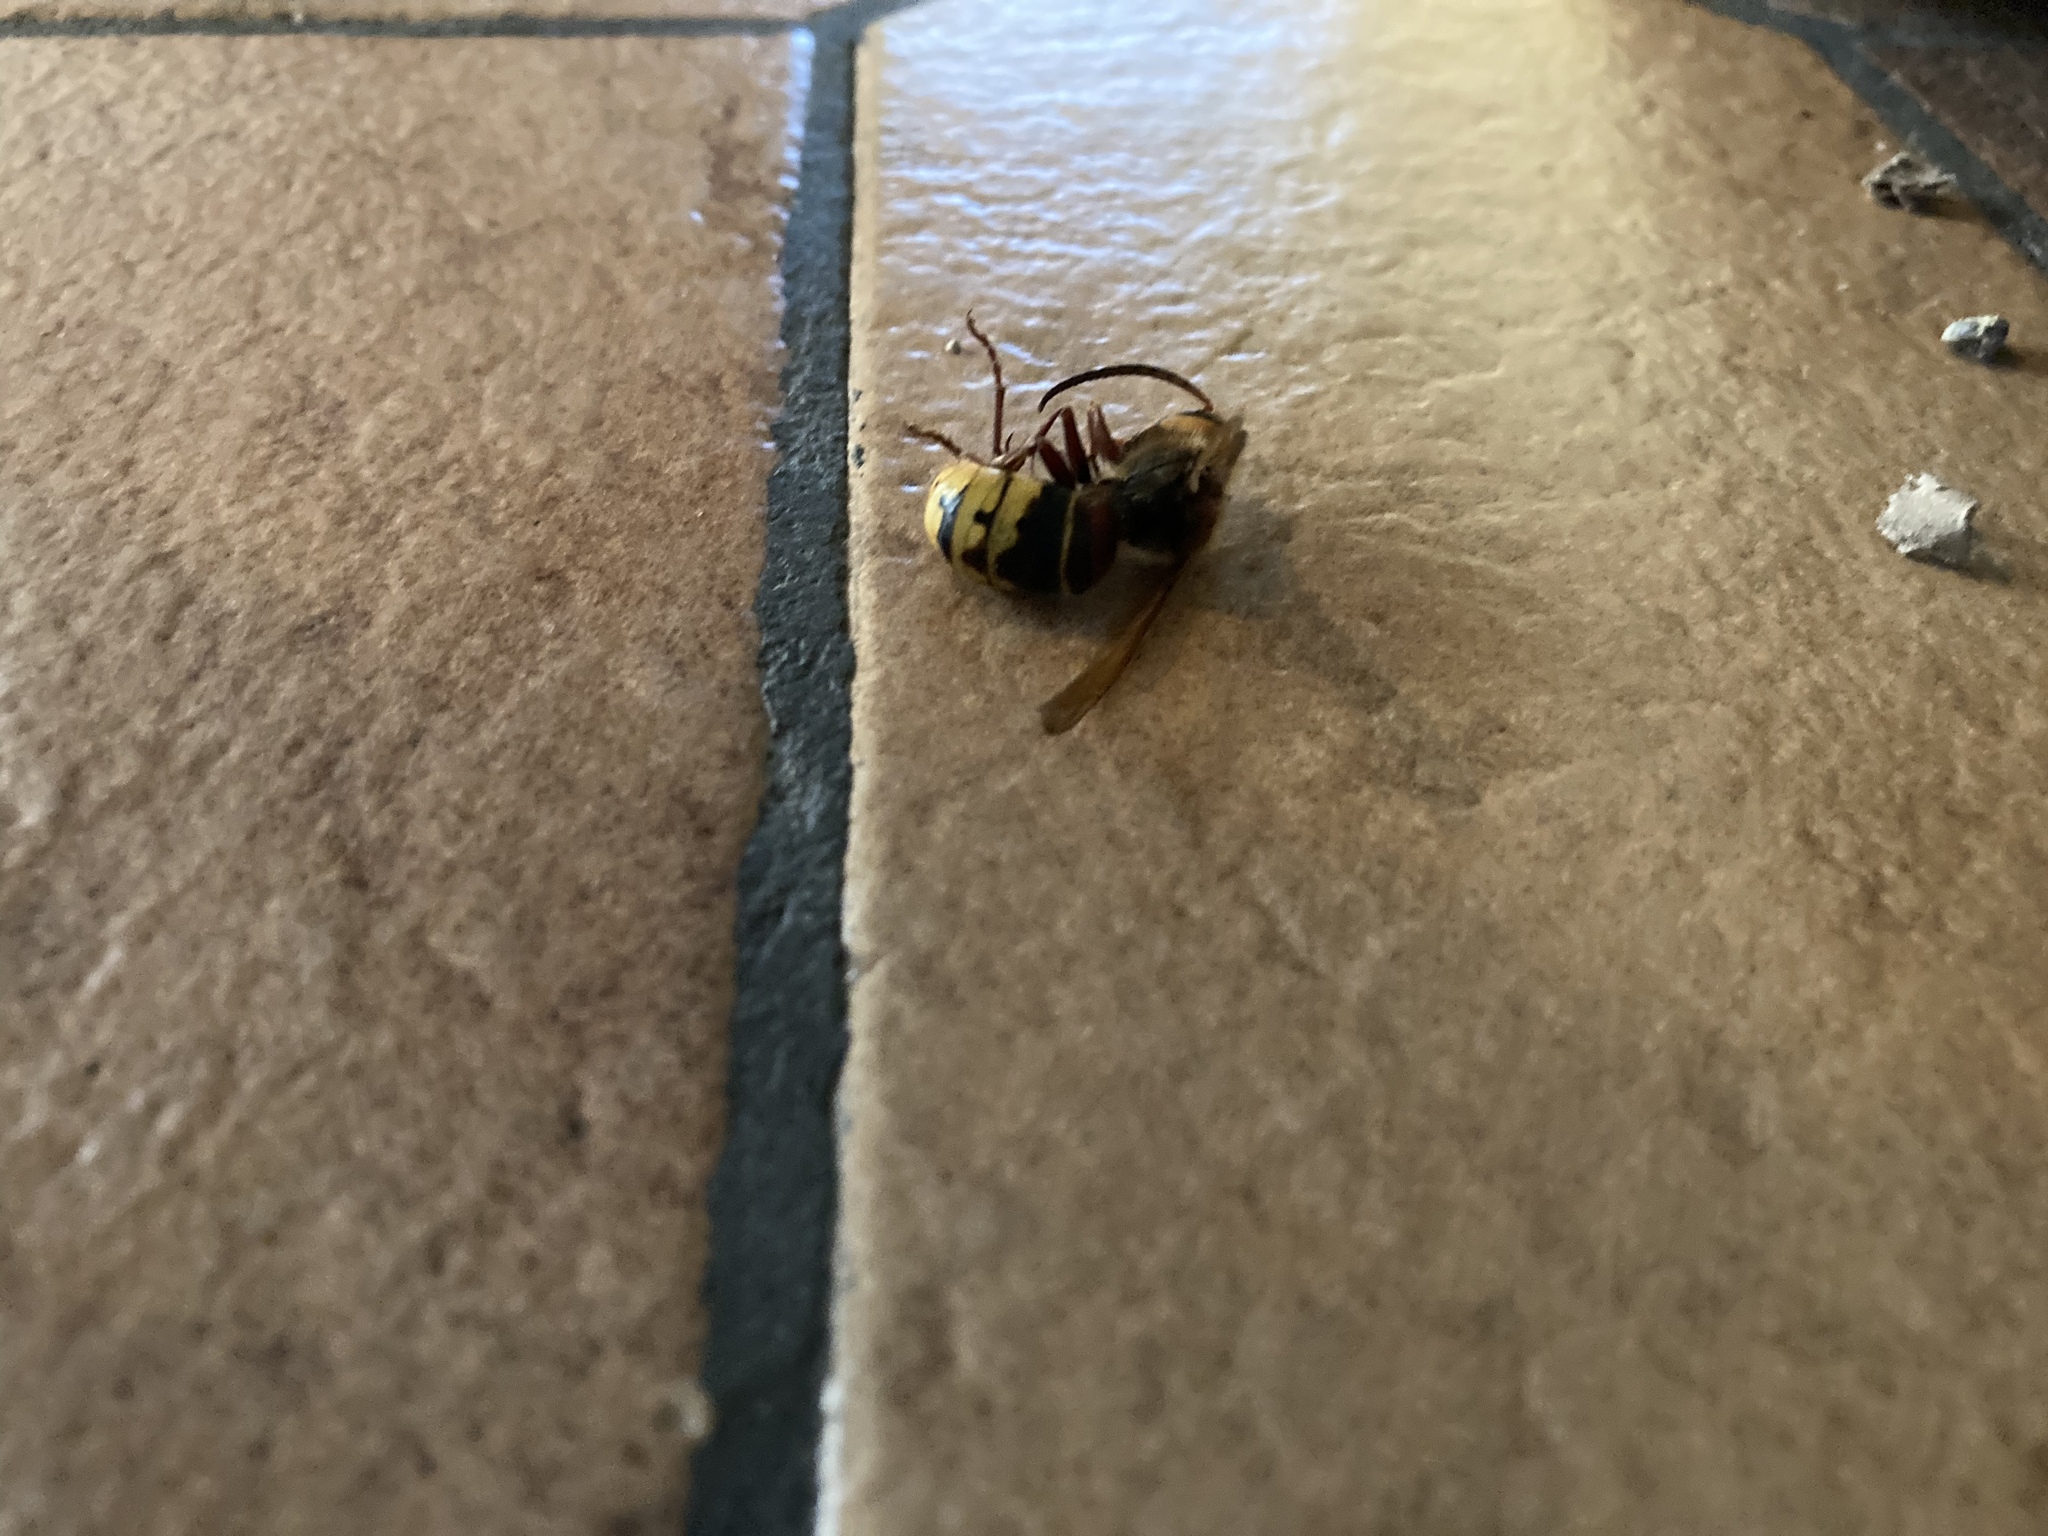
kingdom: Animalia
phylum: Arthropoda
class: Insecta
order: Hymenoptera
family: Vespidae
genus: Vespa
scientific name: Vespa crabro
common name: Hornet
